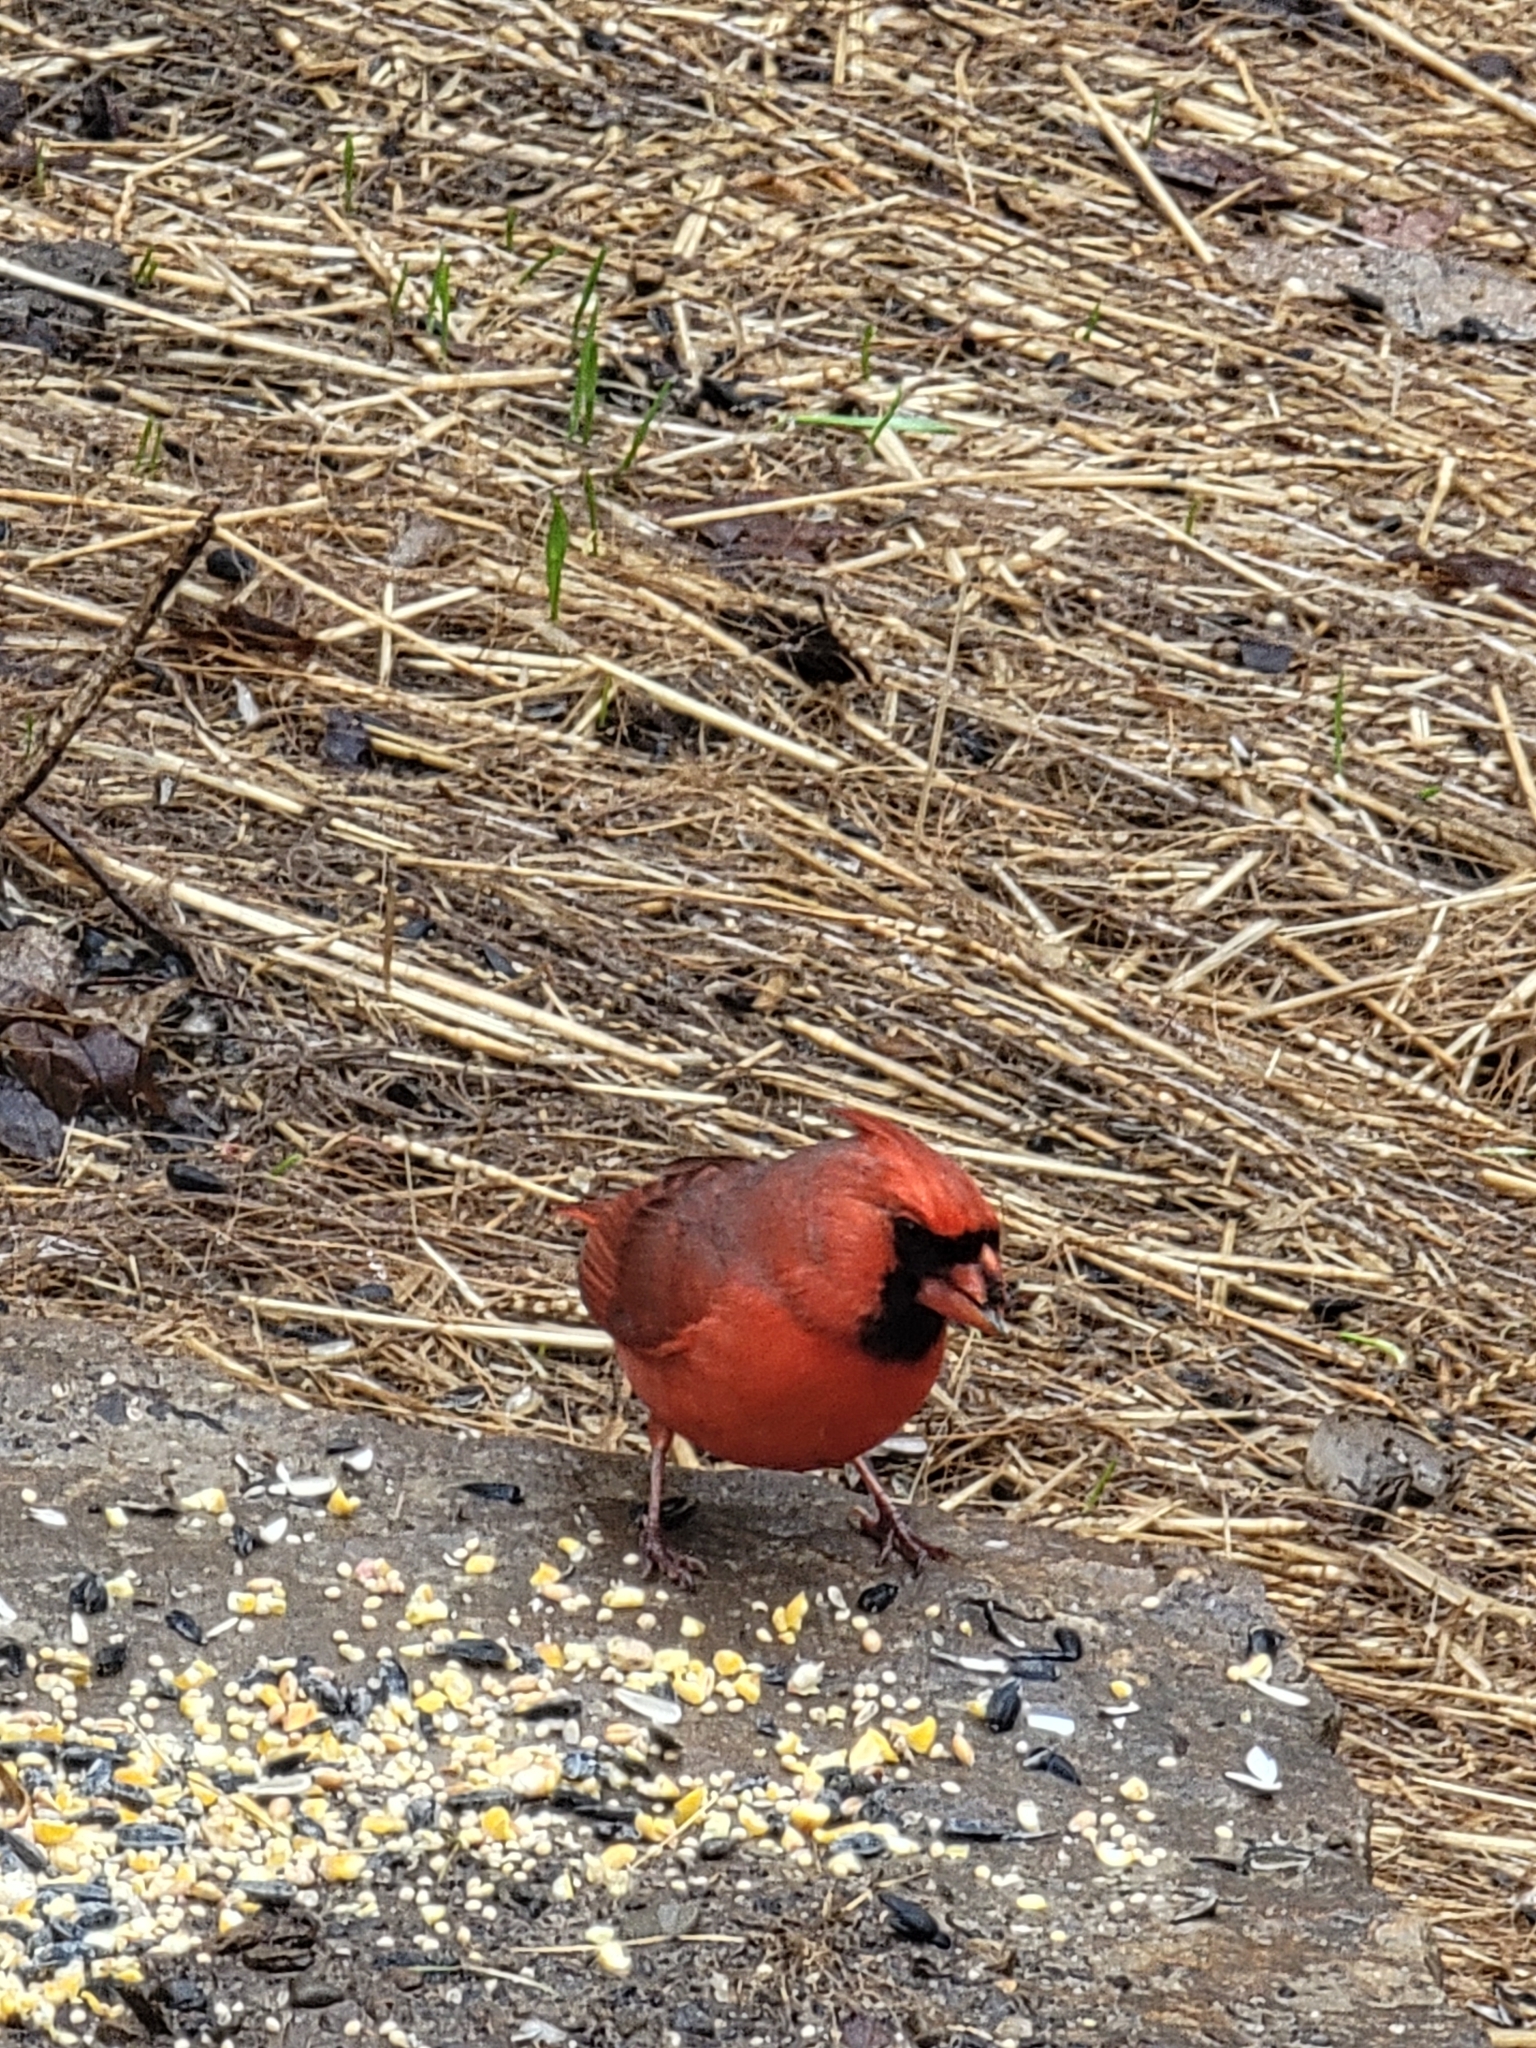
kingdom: Animalia
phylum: Chordata
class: Aves
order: Passeriformes
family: Cardinalidae
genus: Cardinalis
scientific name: Cardinalis cardinalis
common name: Northern cardinal
